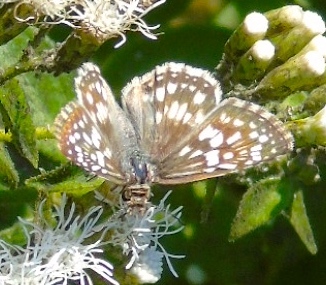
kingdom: Animalia
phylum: Arthropoda
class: Insecta
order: Lepidoptera
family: Hesperiidae
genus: Pyrgus
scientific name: Pyrgus oileus
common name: Tropical checkered-skipper
